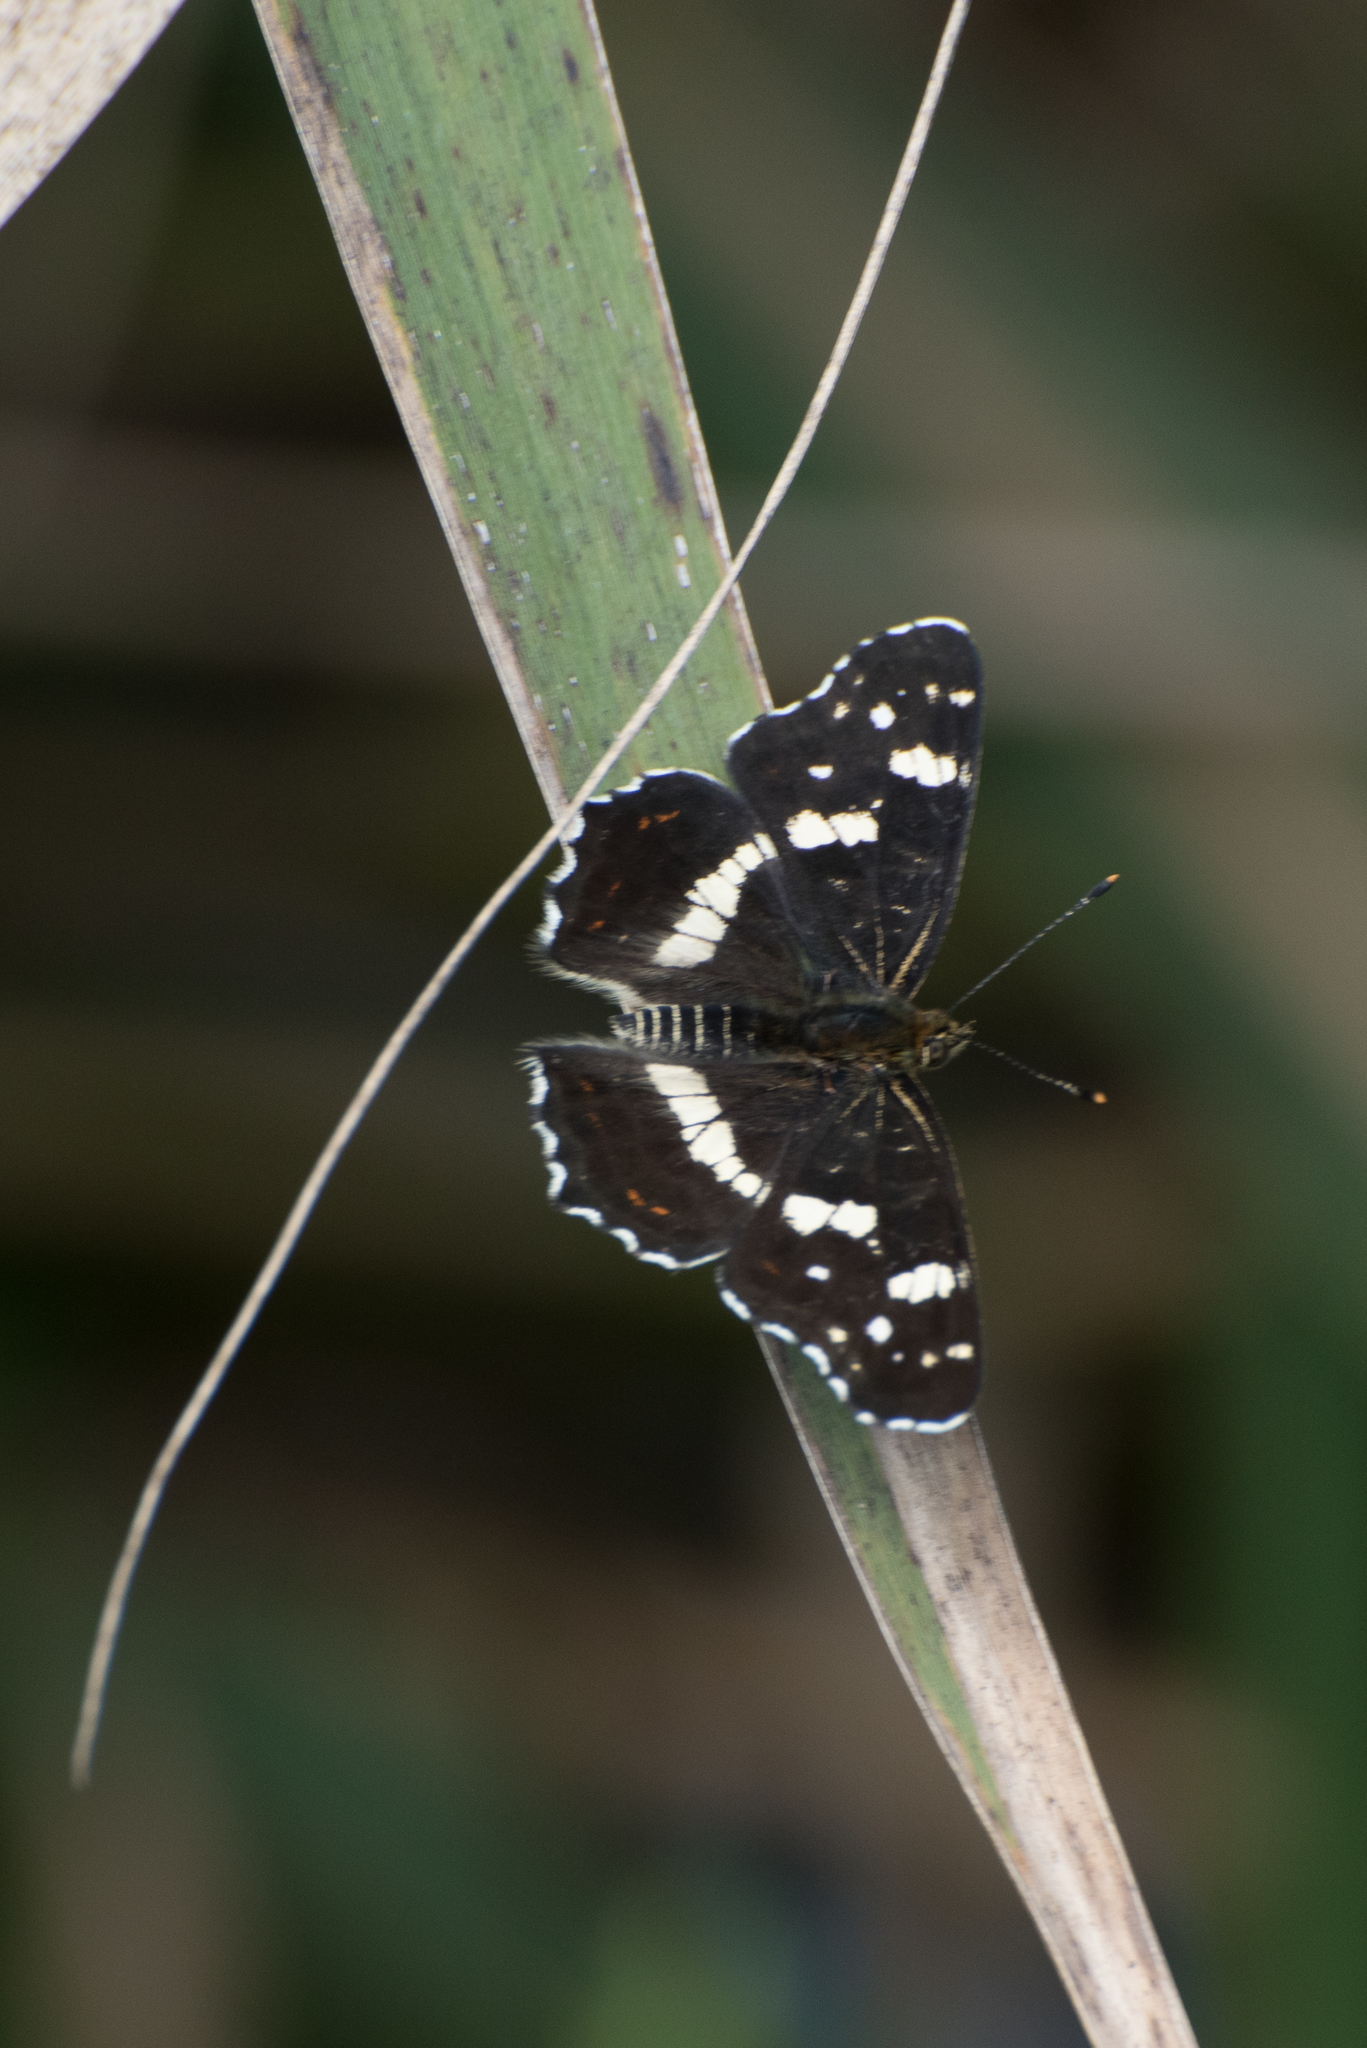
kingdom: Animalia
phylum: Arthropoda
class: Insecta
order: Lepidoptera
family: Nymphalidae
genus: Araschnia
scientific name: Araschnia levana
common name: Map butterfly
